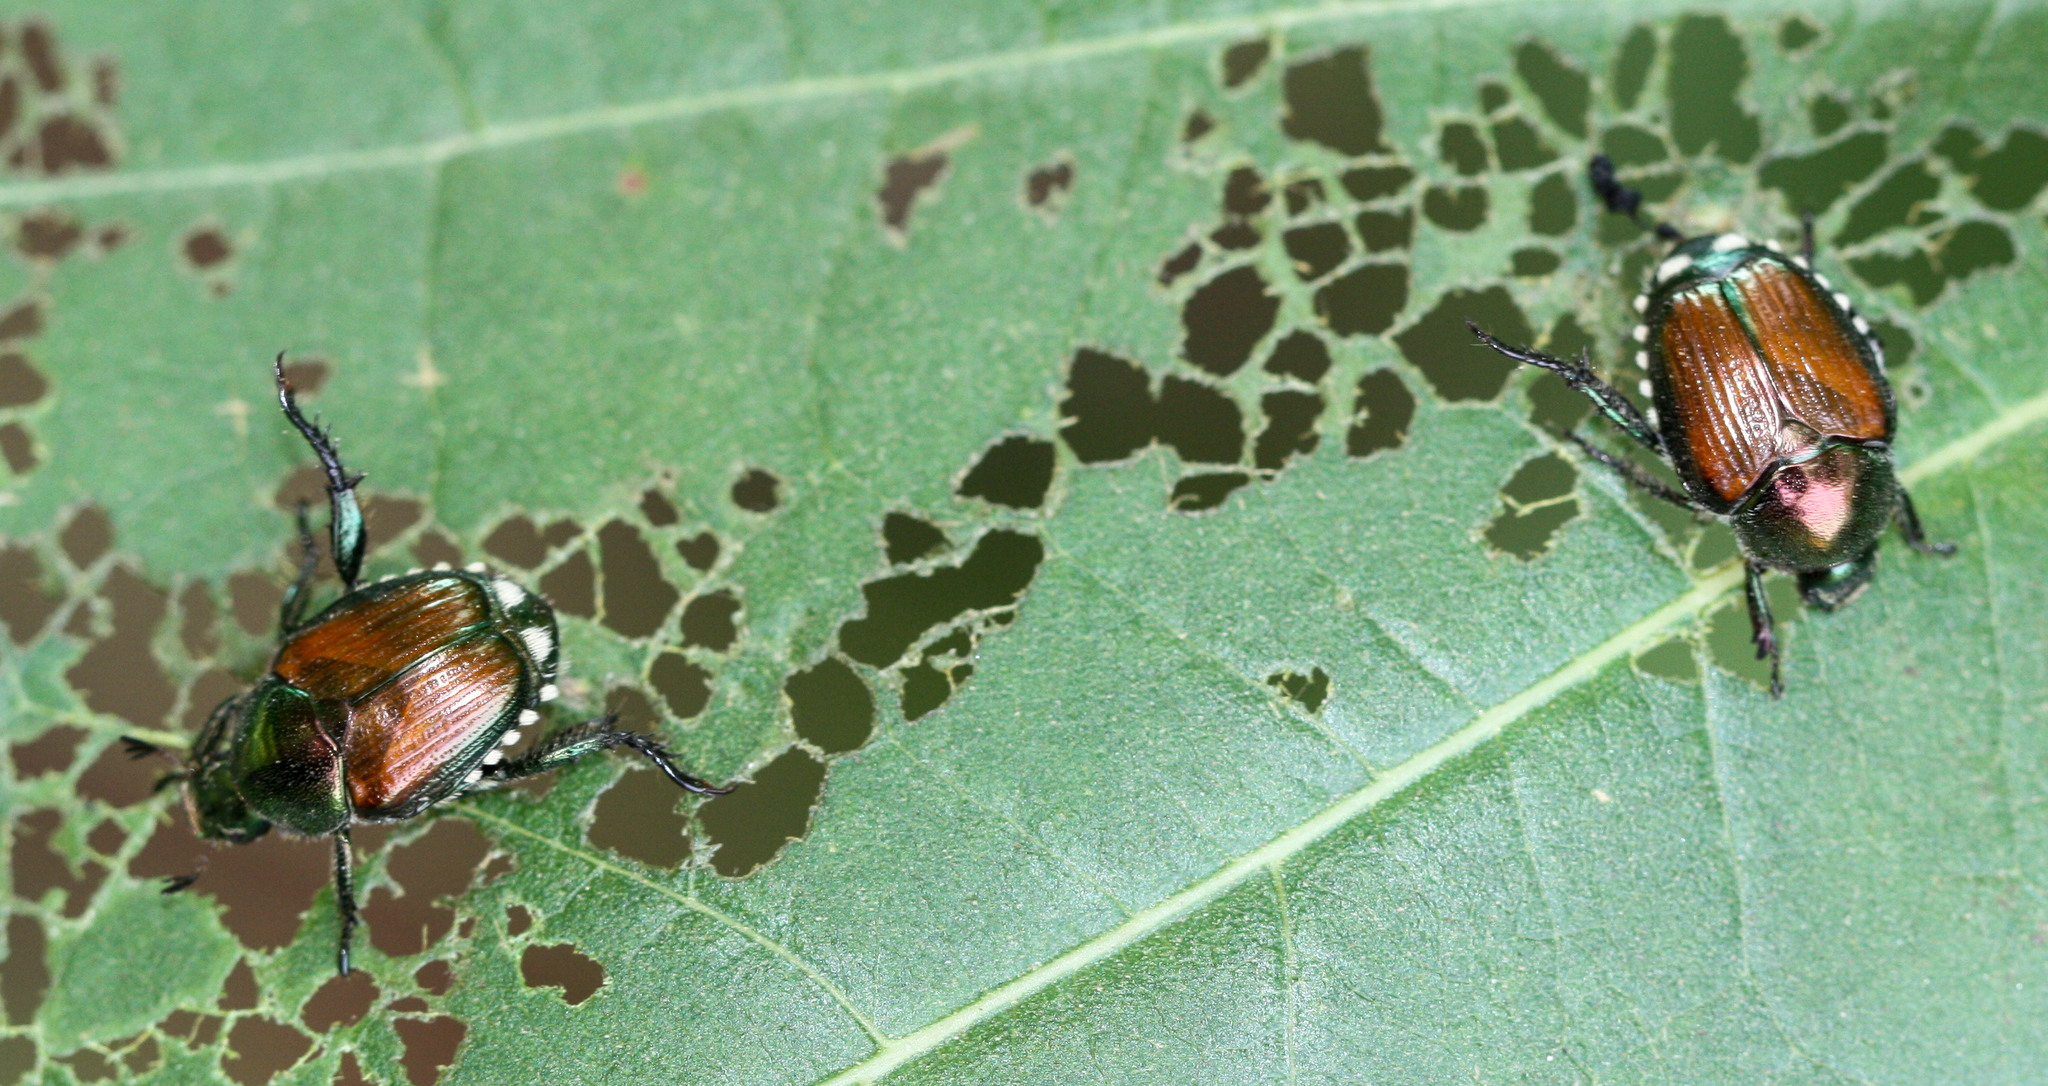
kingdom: Animalia
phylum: Arthropoda
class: Insecta
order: Coleoptera
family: Scarabaeidae
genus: Popillia
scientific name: Popillia japonica
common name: Japanese beetle
